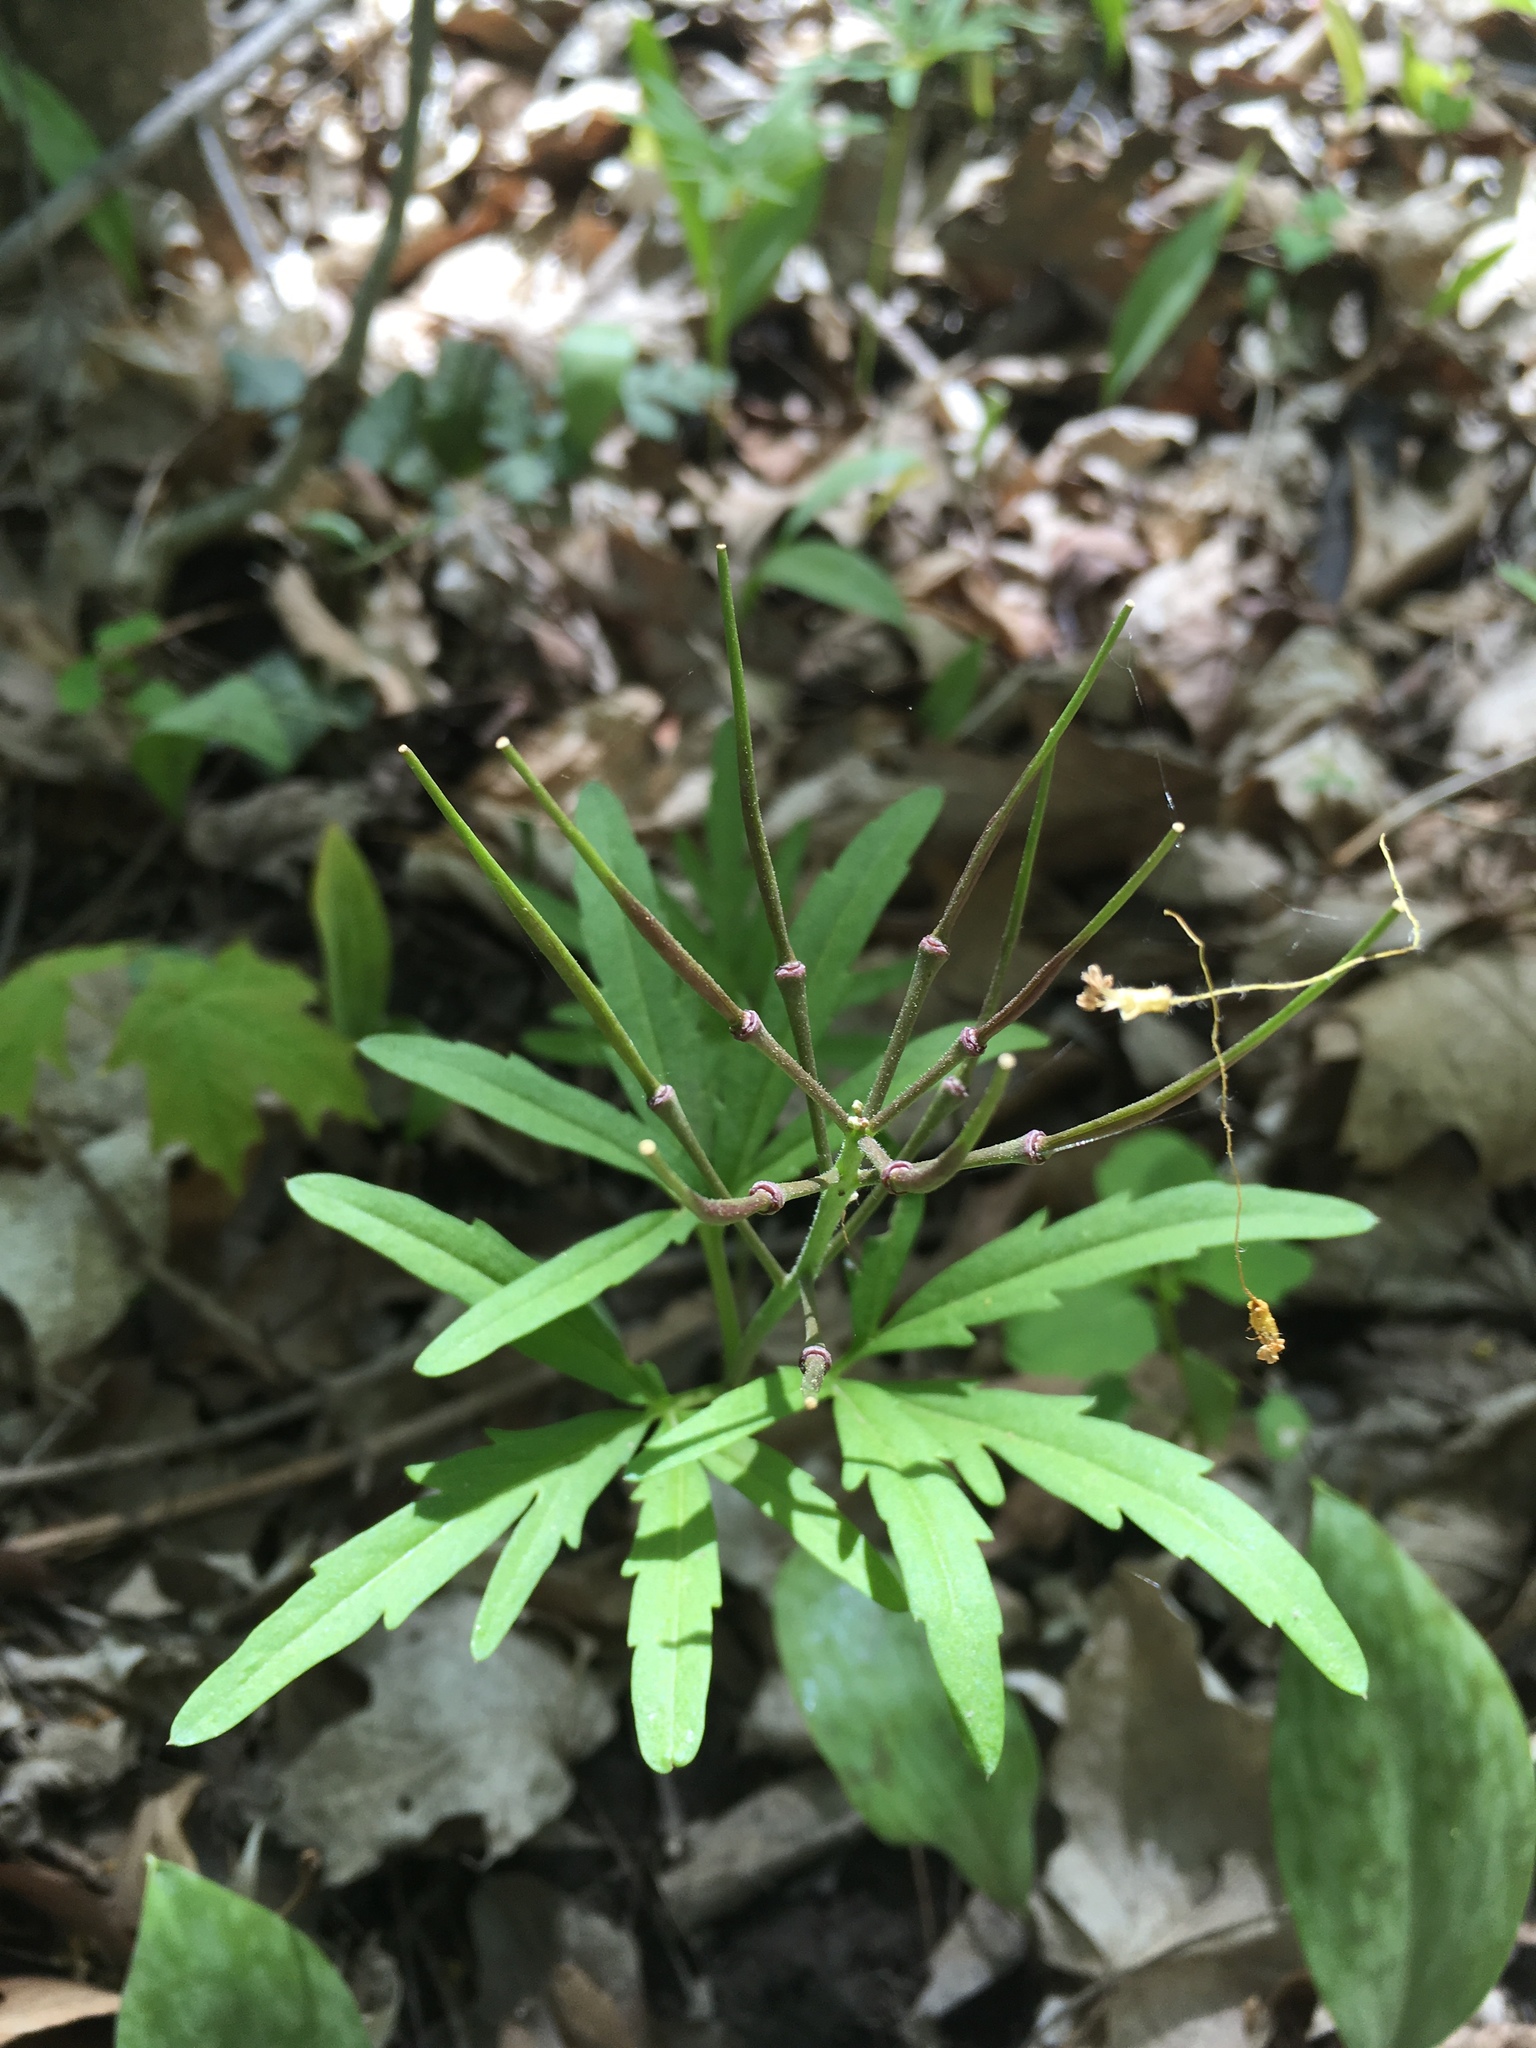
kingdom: Plantae
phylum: Tracheophyta
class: Magnoliopsida
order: Brassicales
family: Brassicaceae
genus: Cardamine
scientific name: Cardamine concatenata
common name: Cut-leaf toothcup
